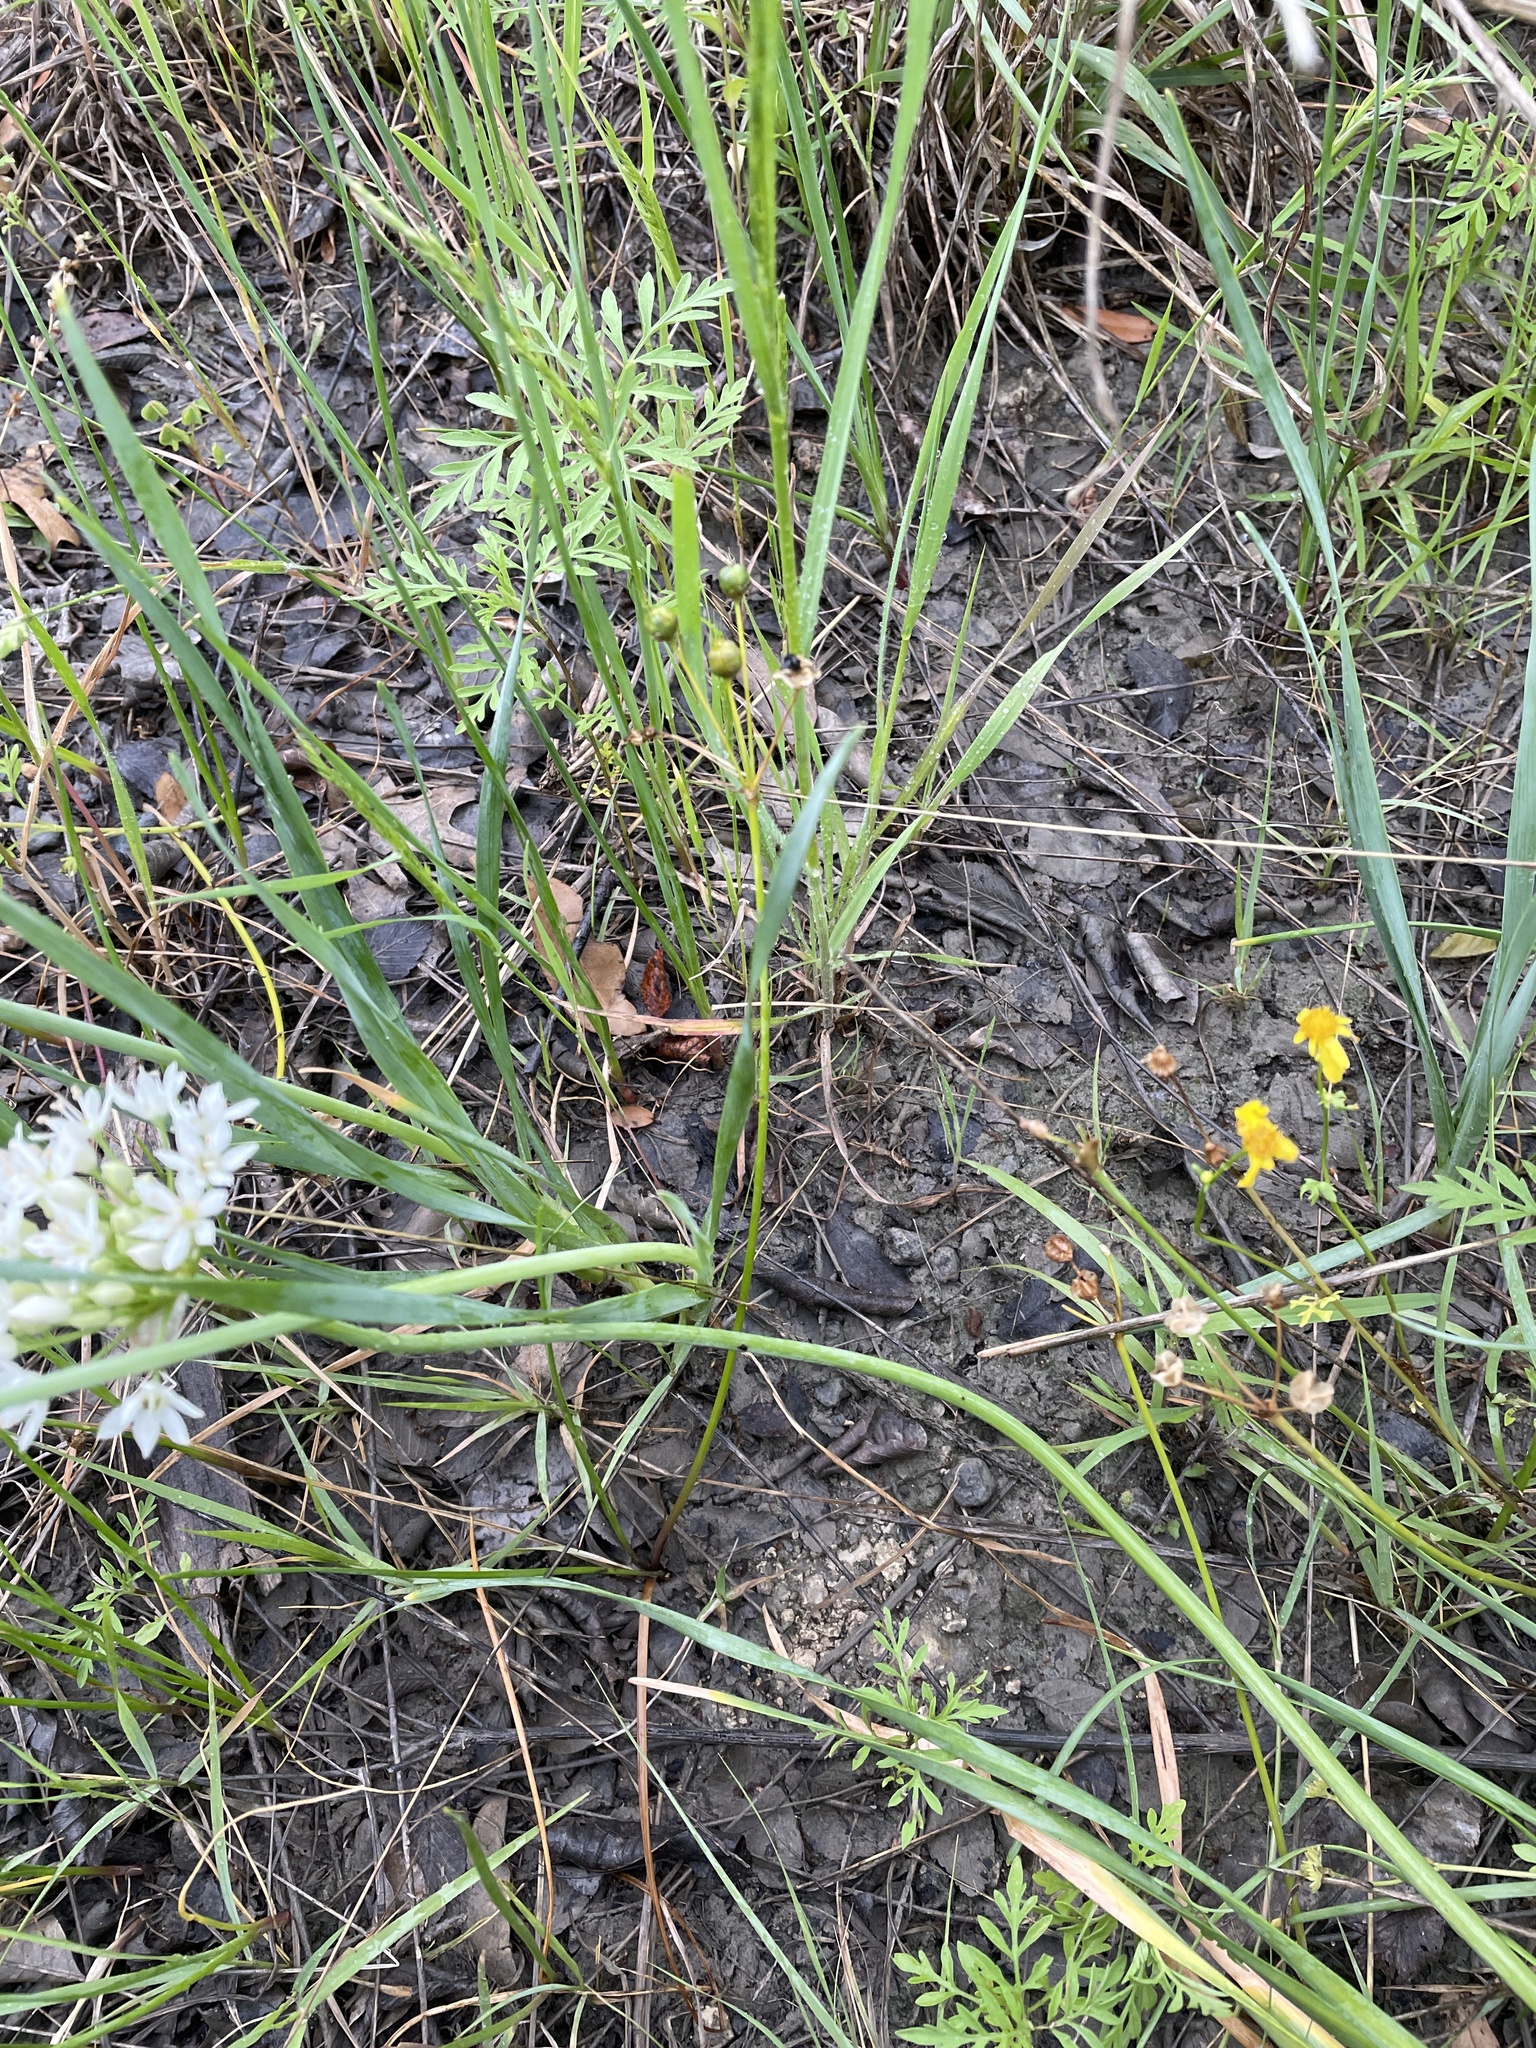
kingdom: Plantae
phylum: Tracheophyta
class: Liliopsida
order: Asparagales
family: Amaryllidaceae
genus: Nothoscordum
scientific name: Nothoscordum bivalve
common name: Crow-poison
